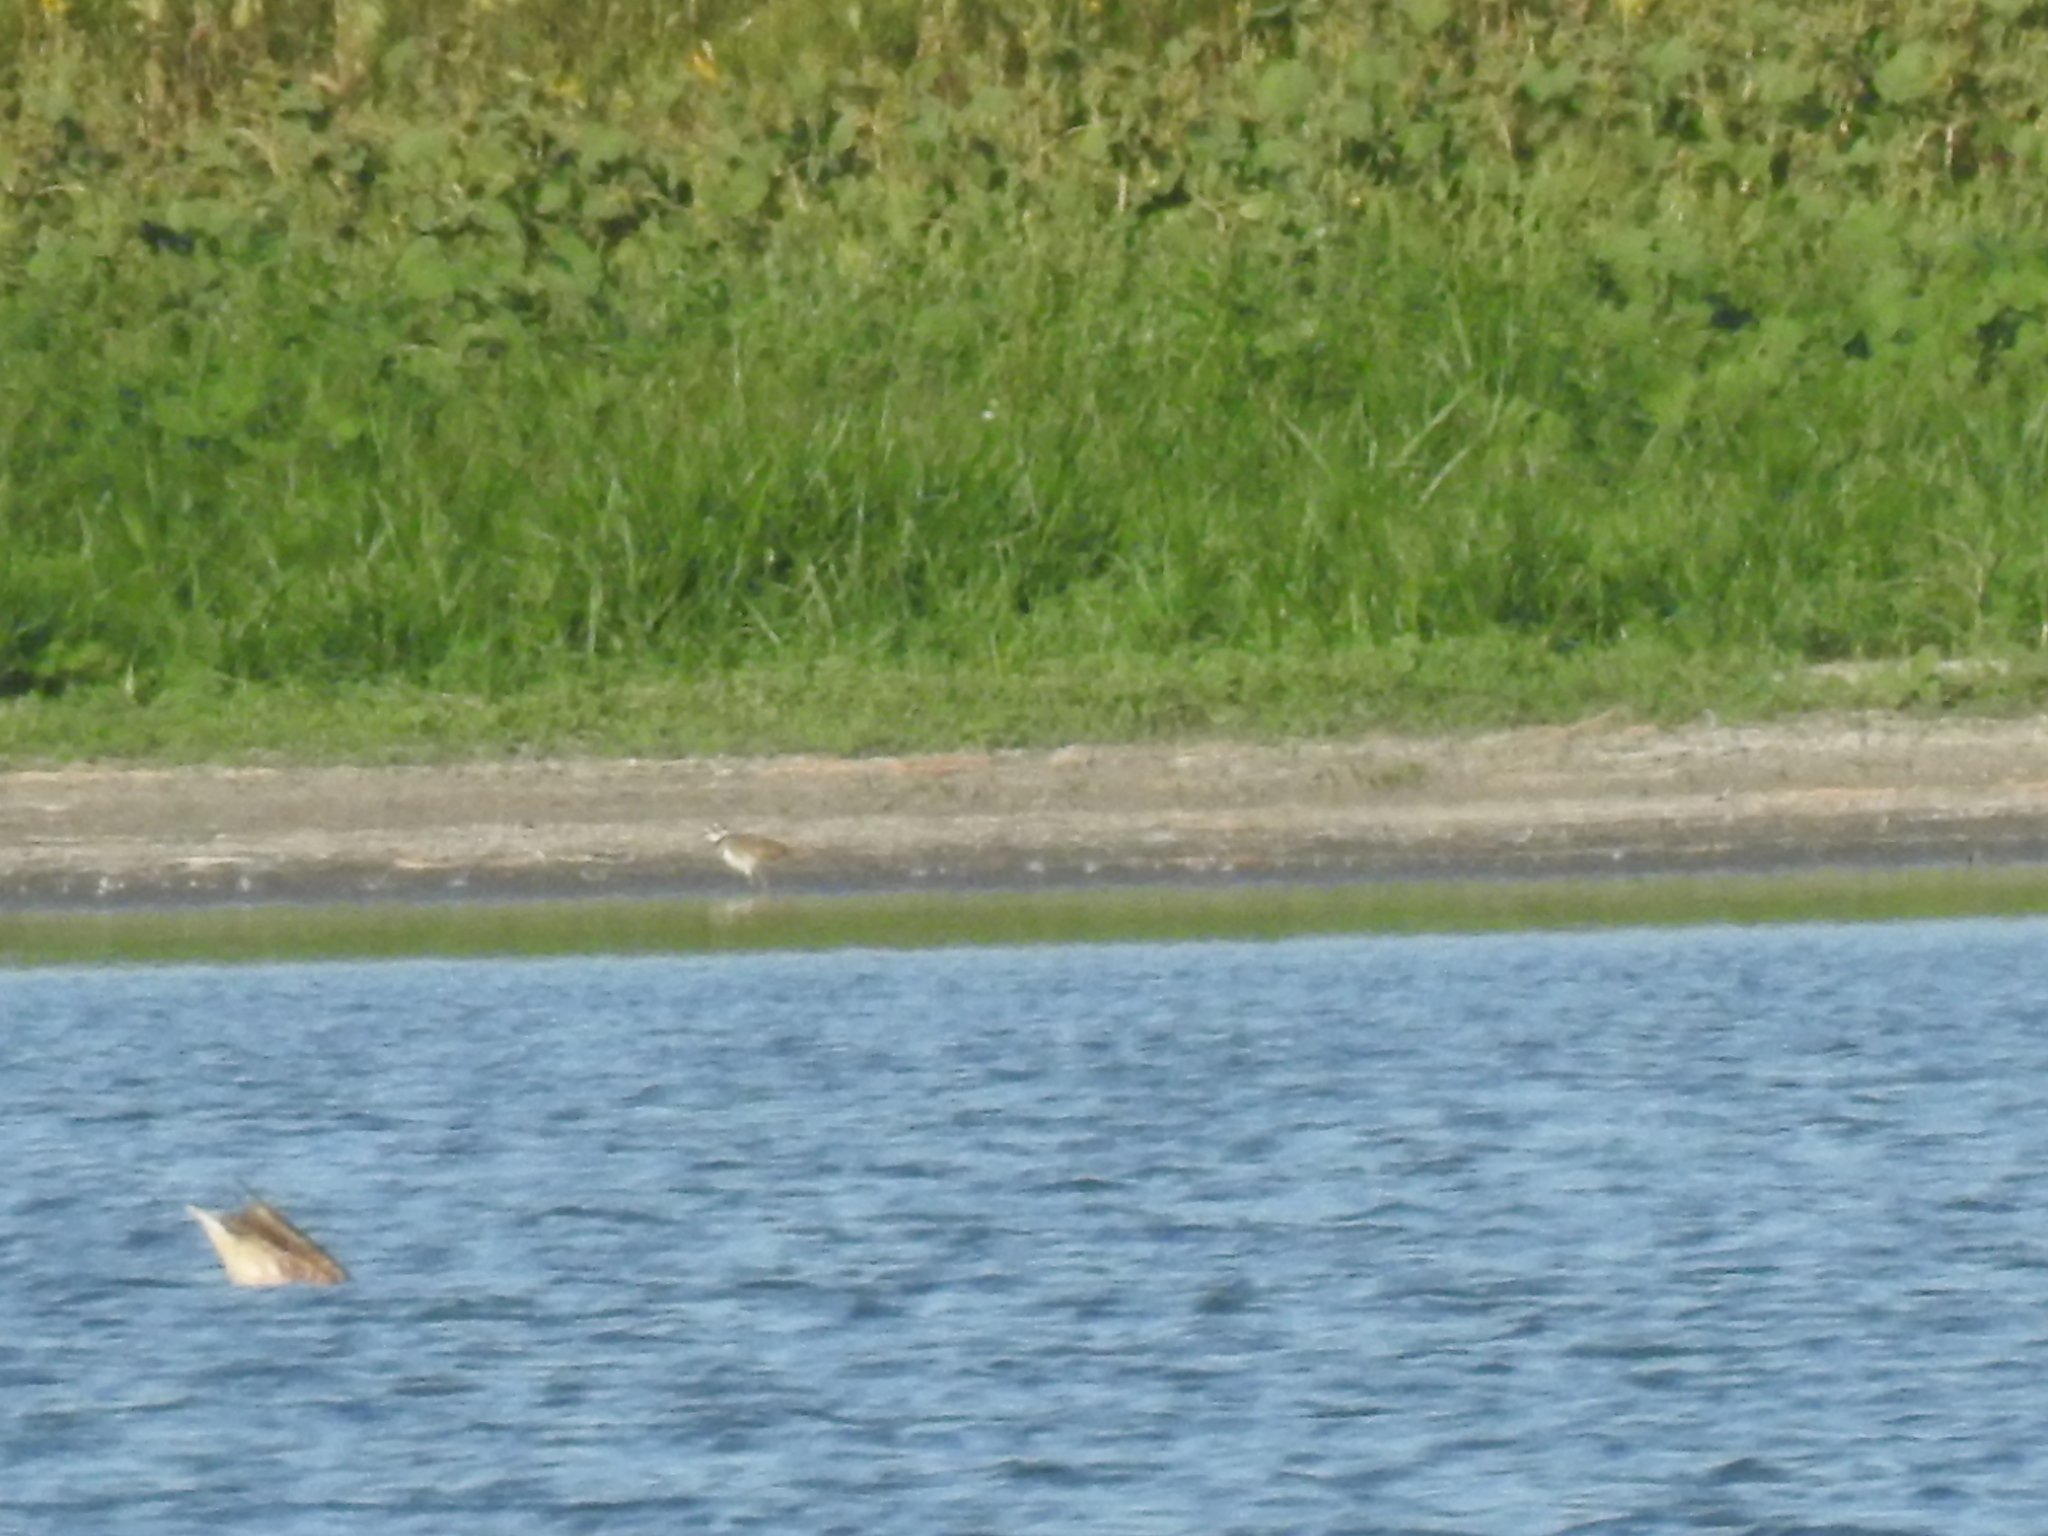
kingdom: Animalia
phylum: Chordata
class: Aves
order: Anseriformes
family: Anatidae
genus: Branta
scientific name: Branta canadensis
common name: Canada goose
